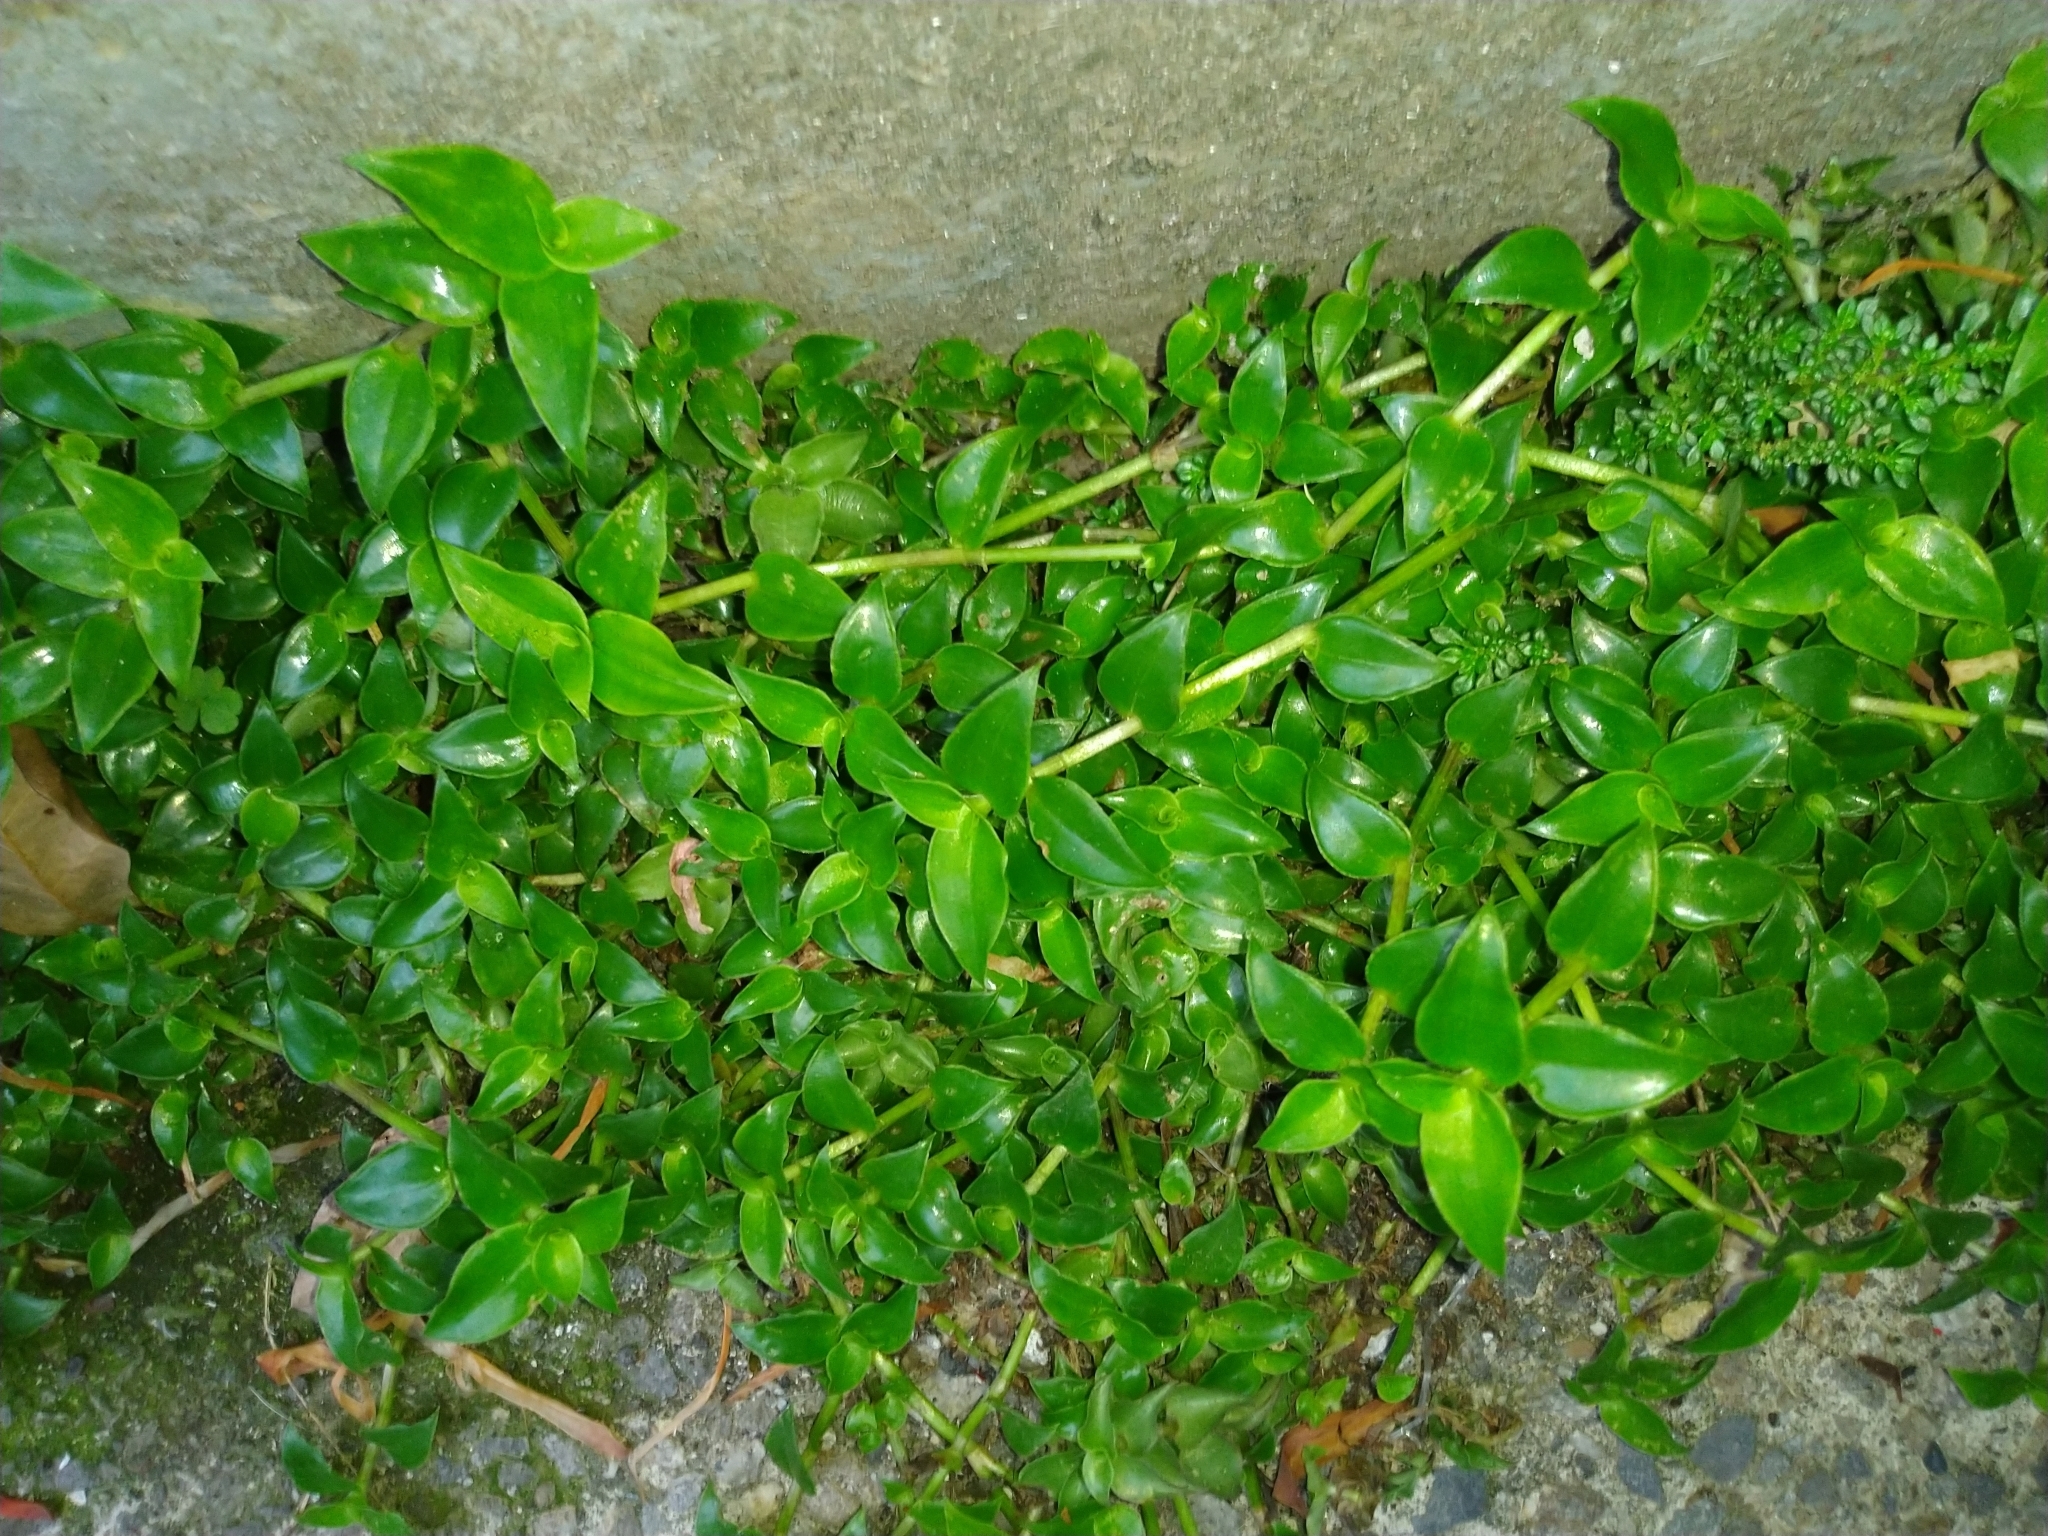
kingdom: Plantae
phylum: Tracheophyta
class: Liliopsida
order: Commelinales
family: Commelinaceae
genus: Callisia
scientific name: Callisia repens
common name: Creeping inchplant
